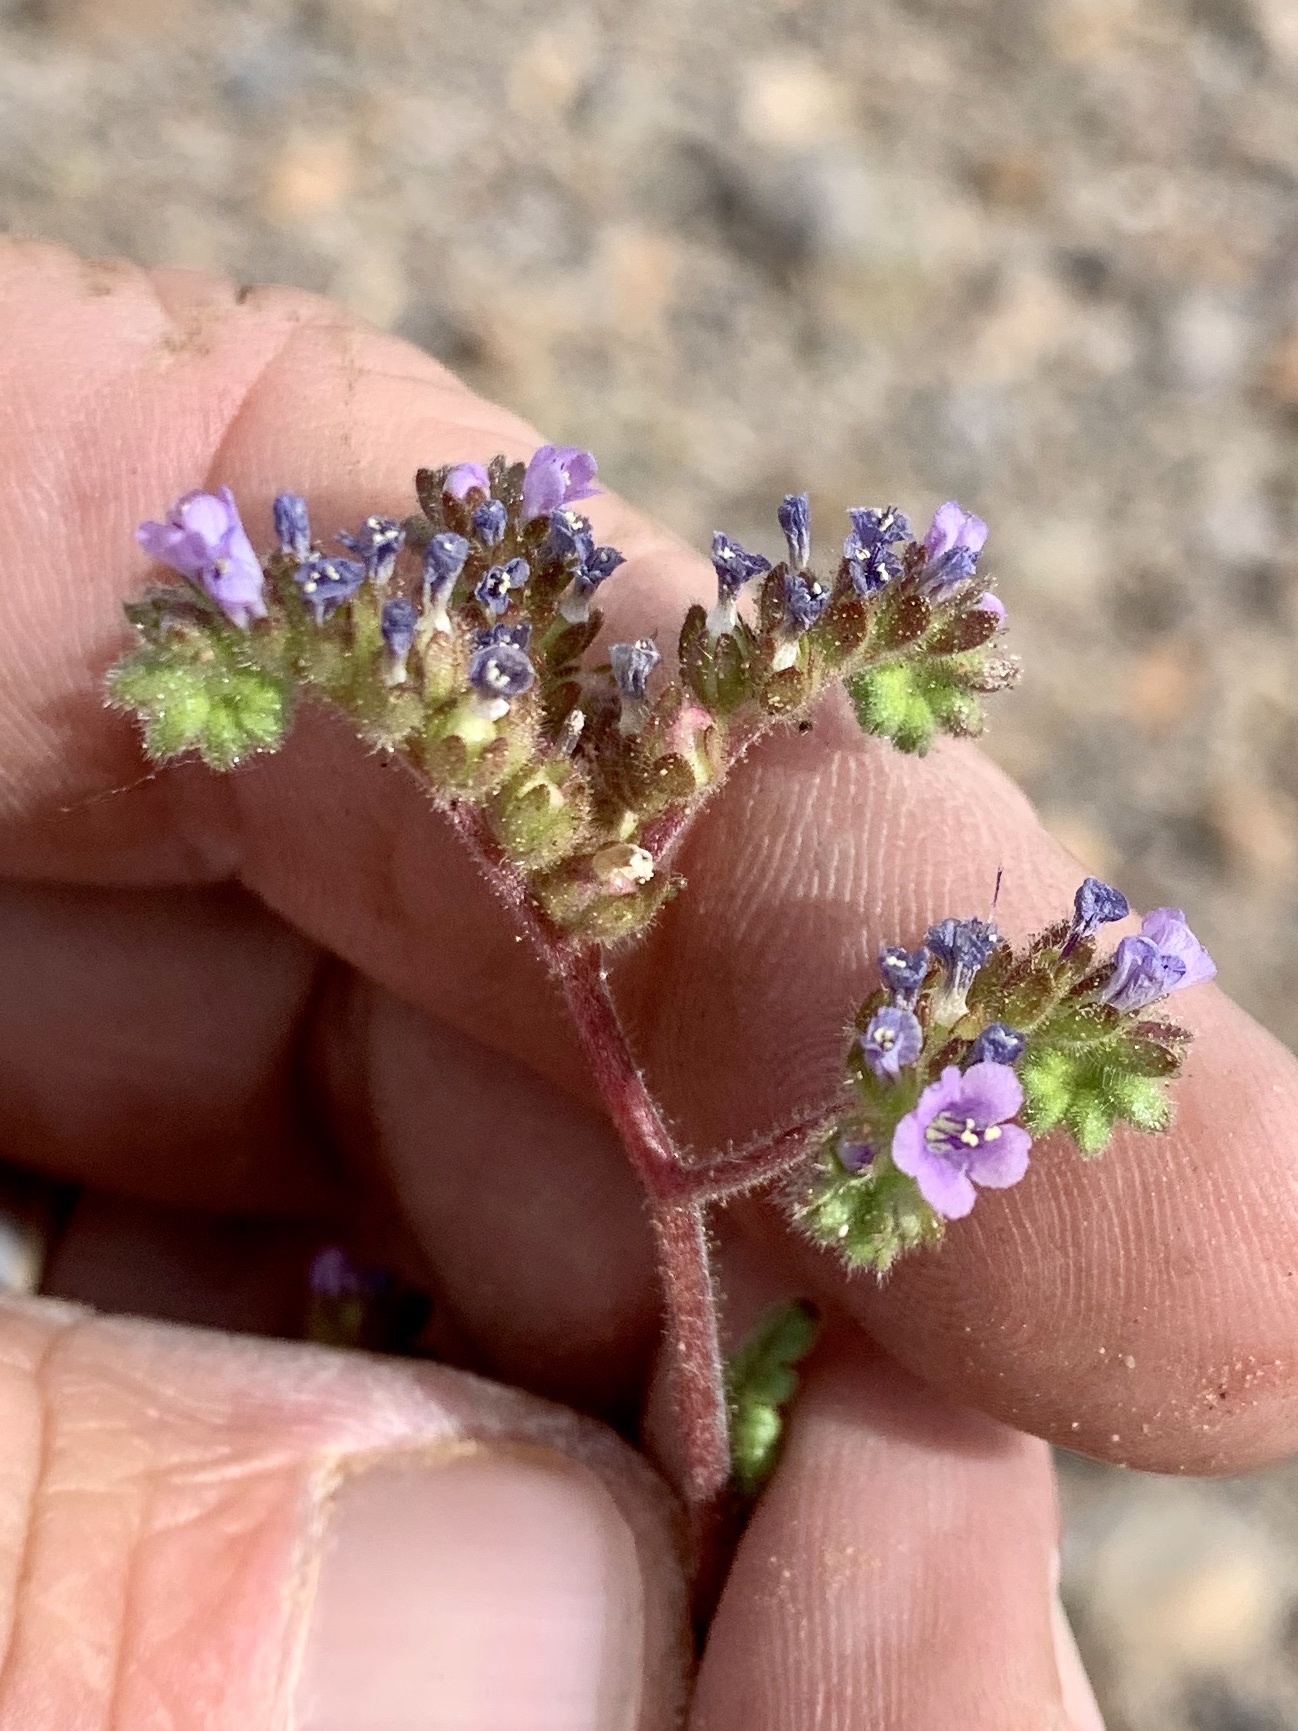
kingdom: Plantae
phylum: Tracheophyta
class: Magnoliopsida
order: Boraginales
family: Hydrophyllaceae
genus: Phacelia
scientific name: Phacelia coerulea
